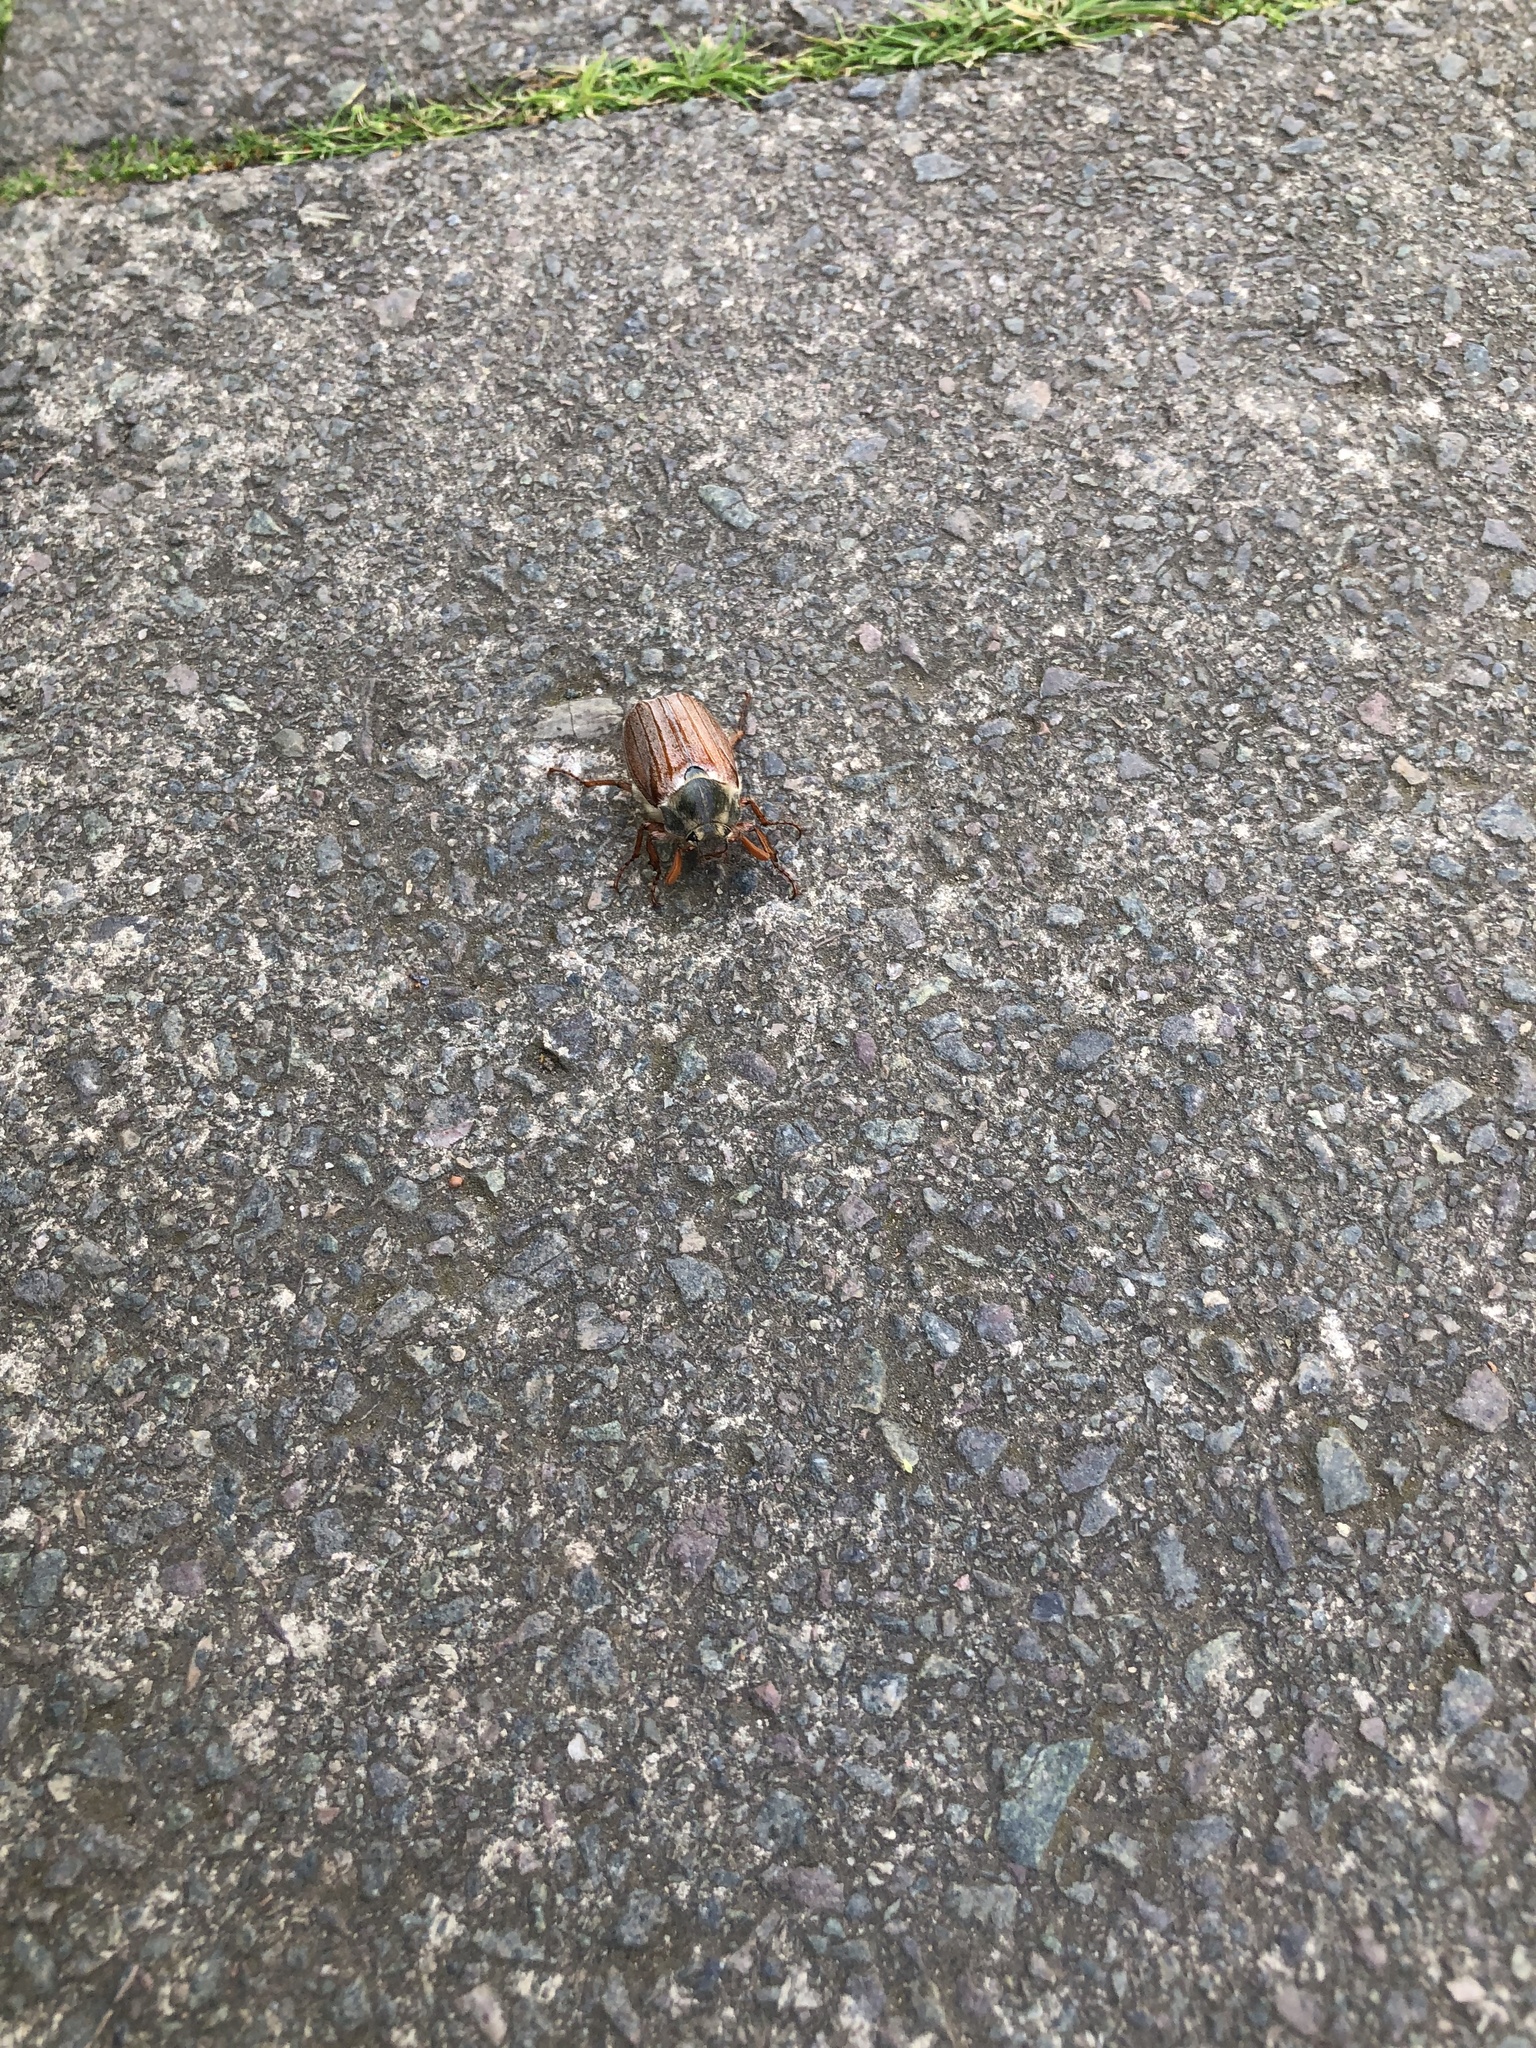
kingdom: Animalia
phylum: Arthropoda
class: Insecta
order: Coleoptera
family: Scarabaeidae
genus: Melolontha
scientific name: Melolontha melolontha
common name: Cockchafer maybeetle
